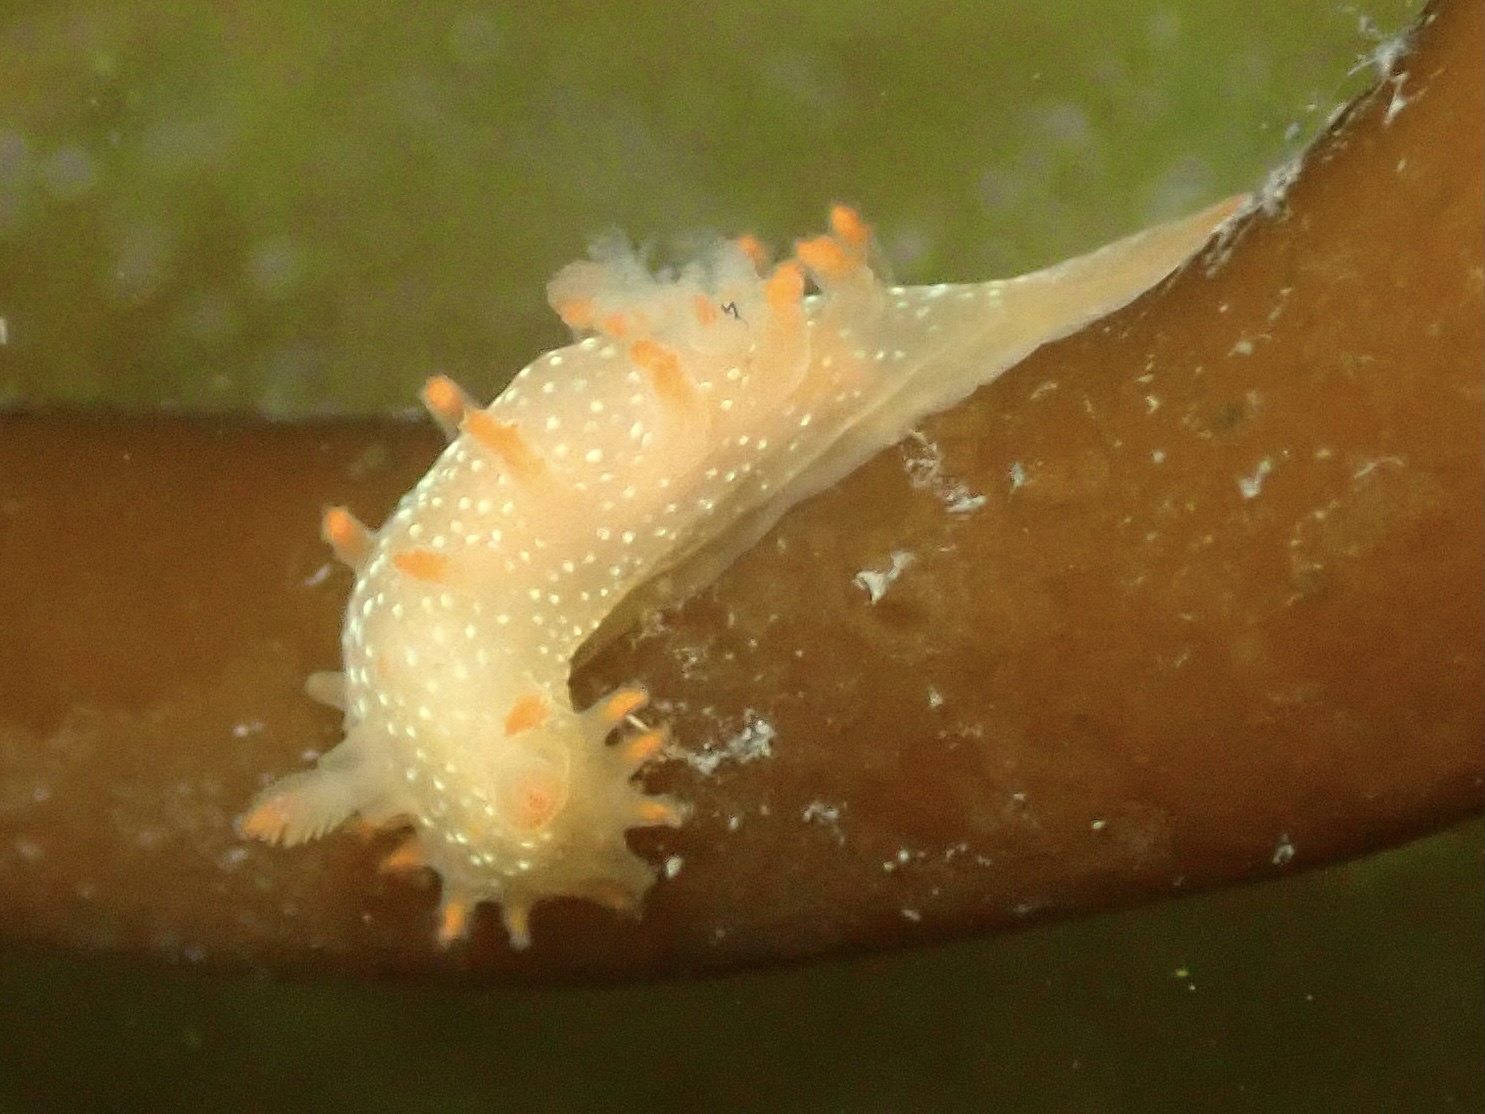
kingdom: Animalia
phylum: Mollusca
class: Gastropoda
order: Nudibranchia
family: Polyceridae
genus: Triopha
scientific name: Triopha maculata
